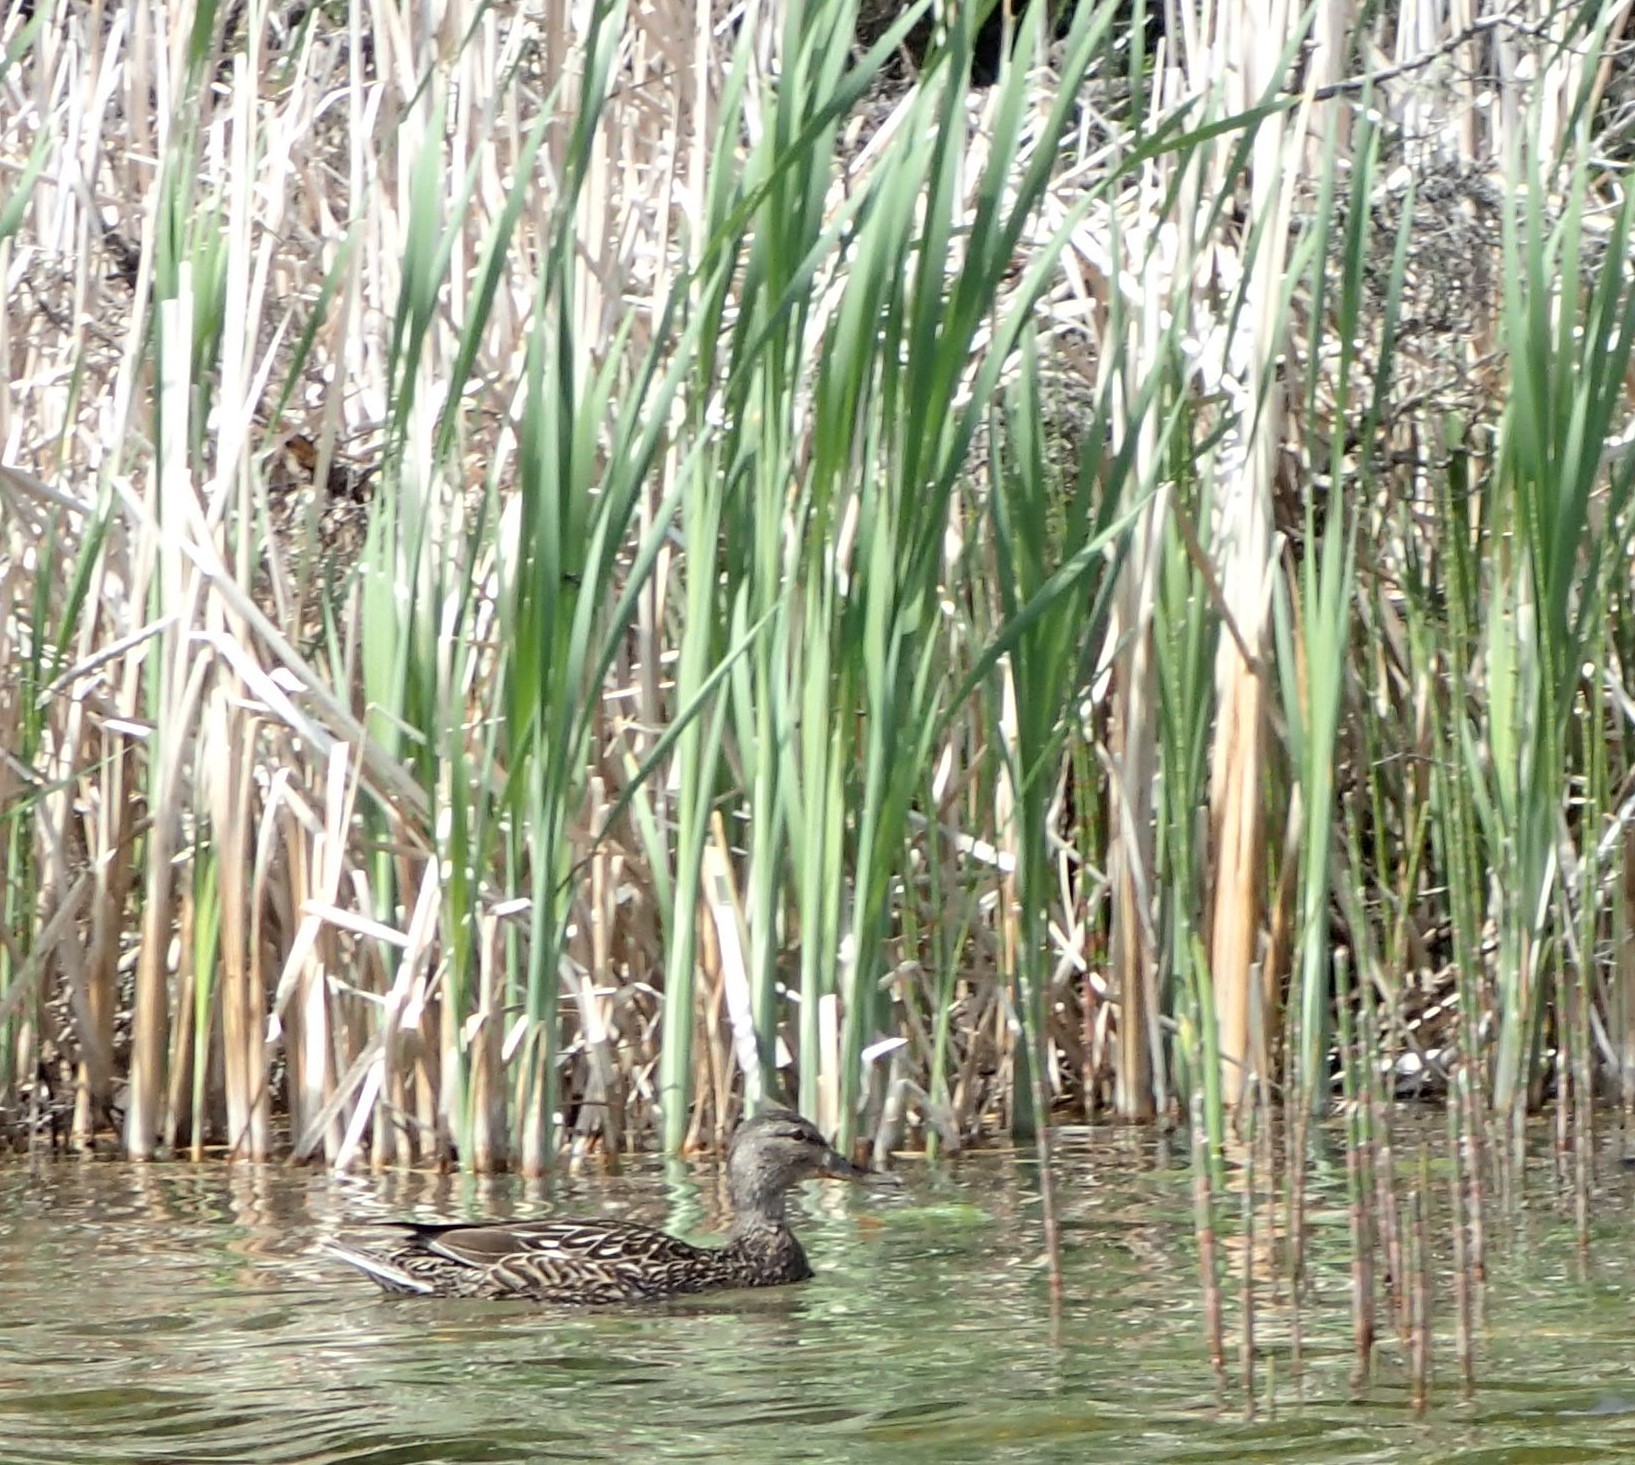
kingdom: Animalia
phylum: Chordata
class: Aves
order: Anseriformes
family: Anatidae
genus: Anas
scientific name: Anas platyrhynchos
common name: Mallard
